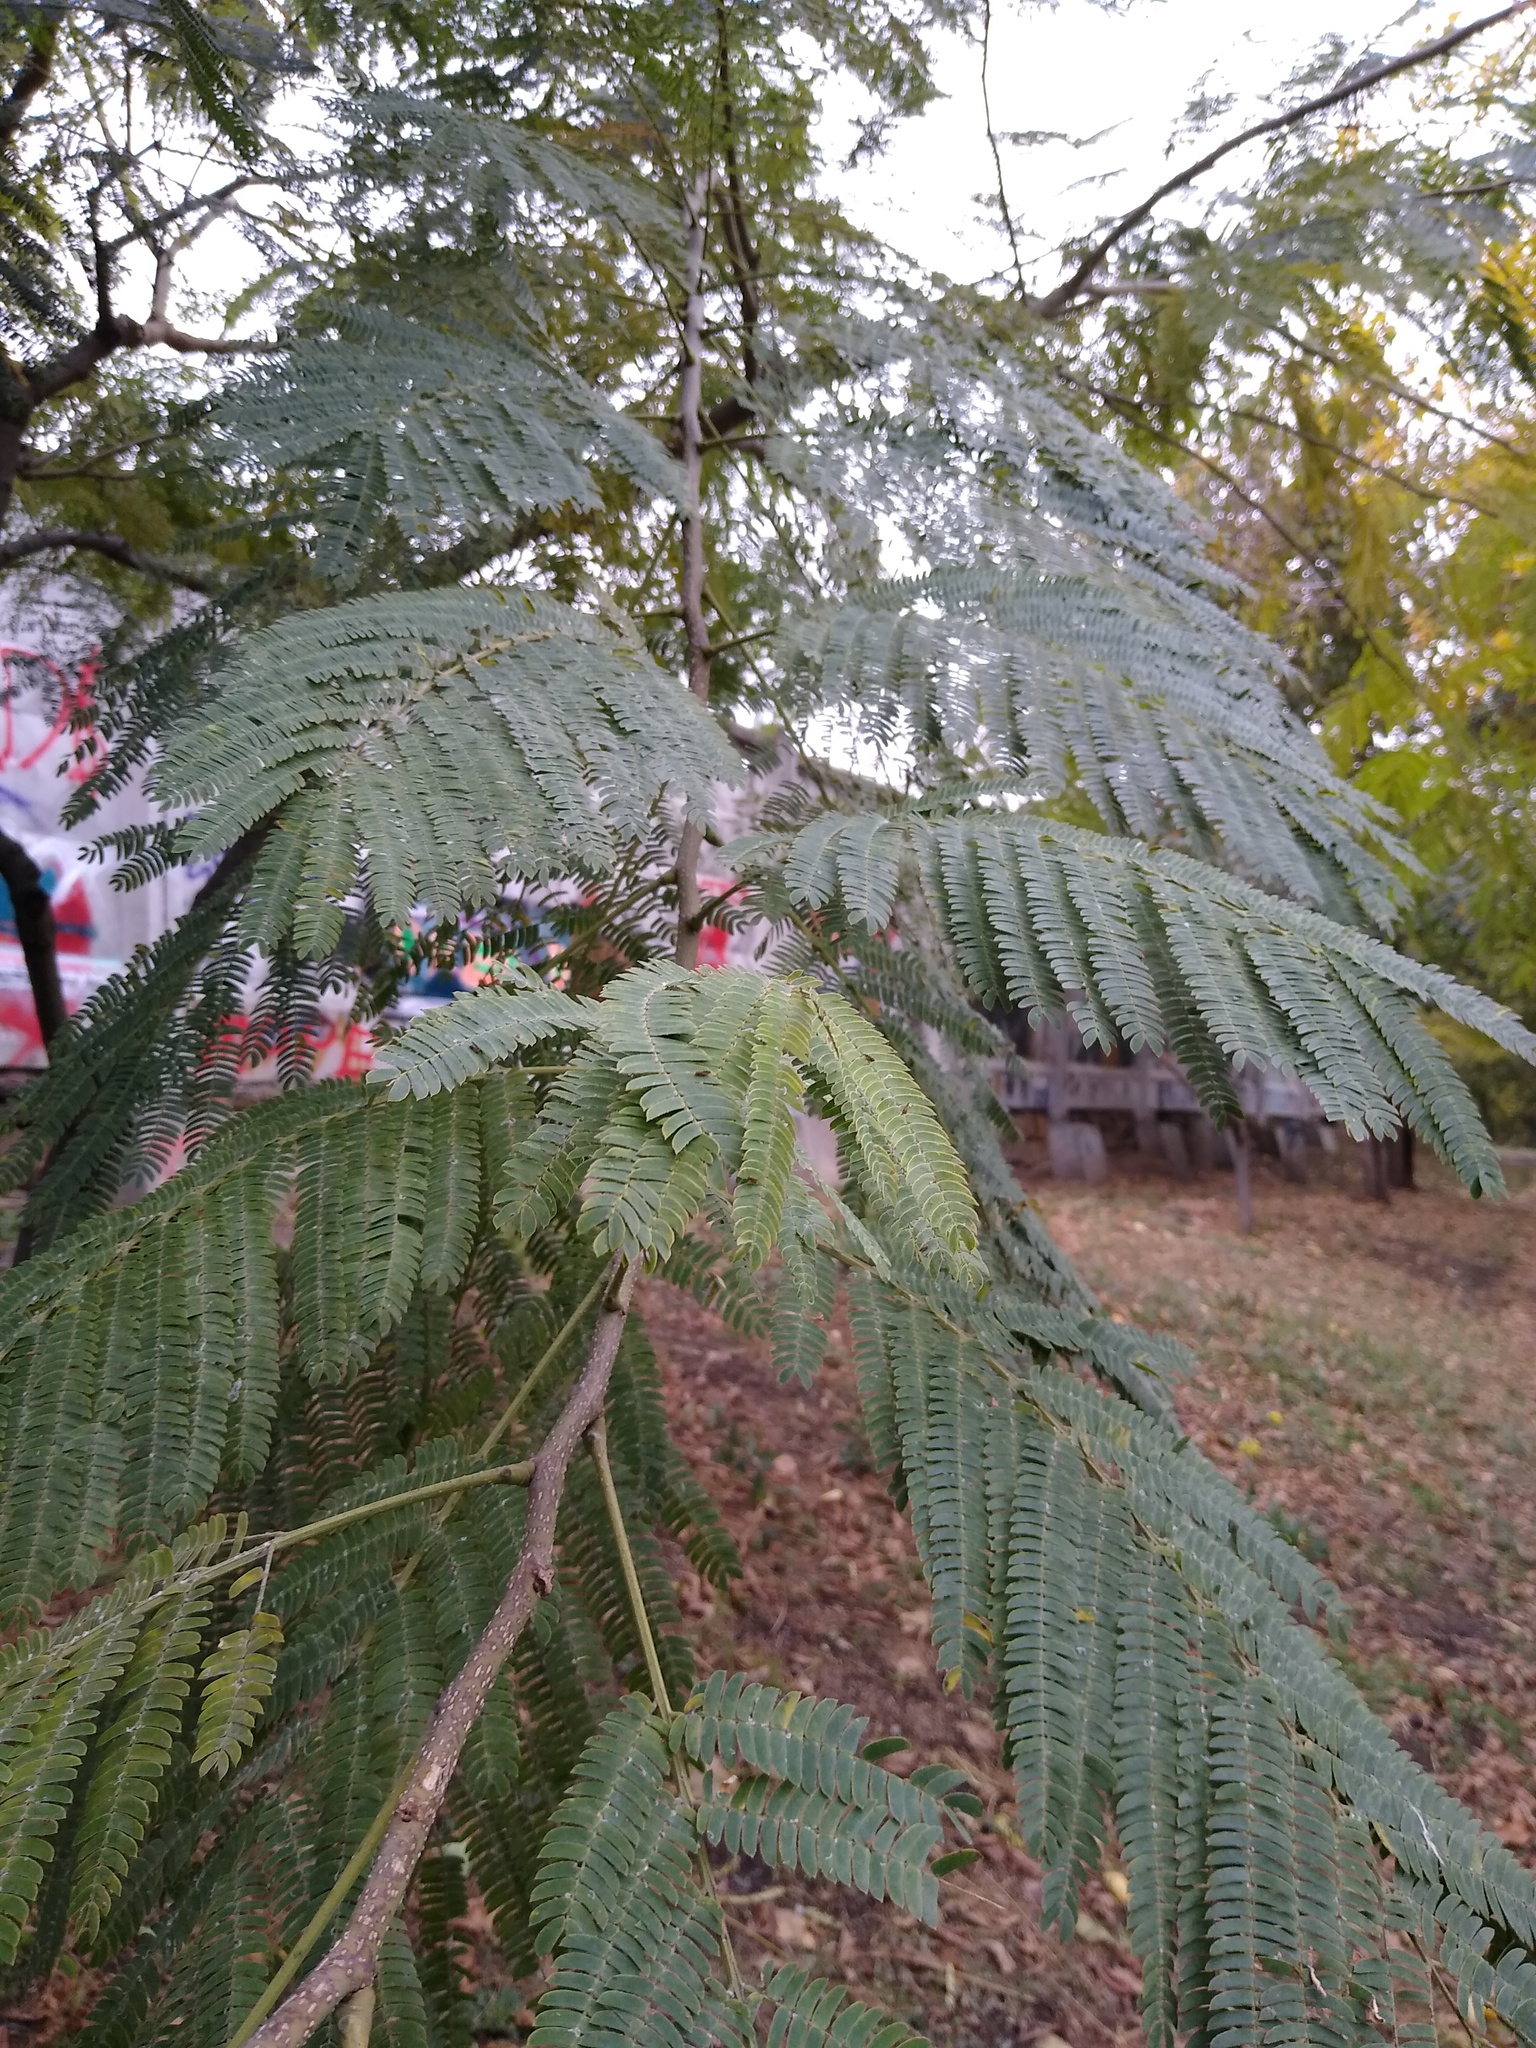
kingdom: Plantae
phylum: Tracheophyta
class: Magnoliopsida
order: Fabales
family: Fabaceae
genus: Albizia
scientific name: Albizia julibrissin
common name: Silktree
